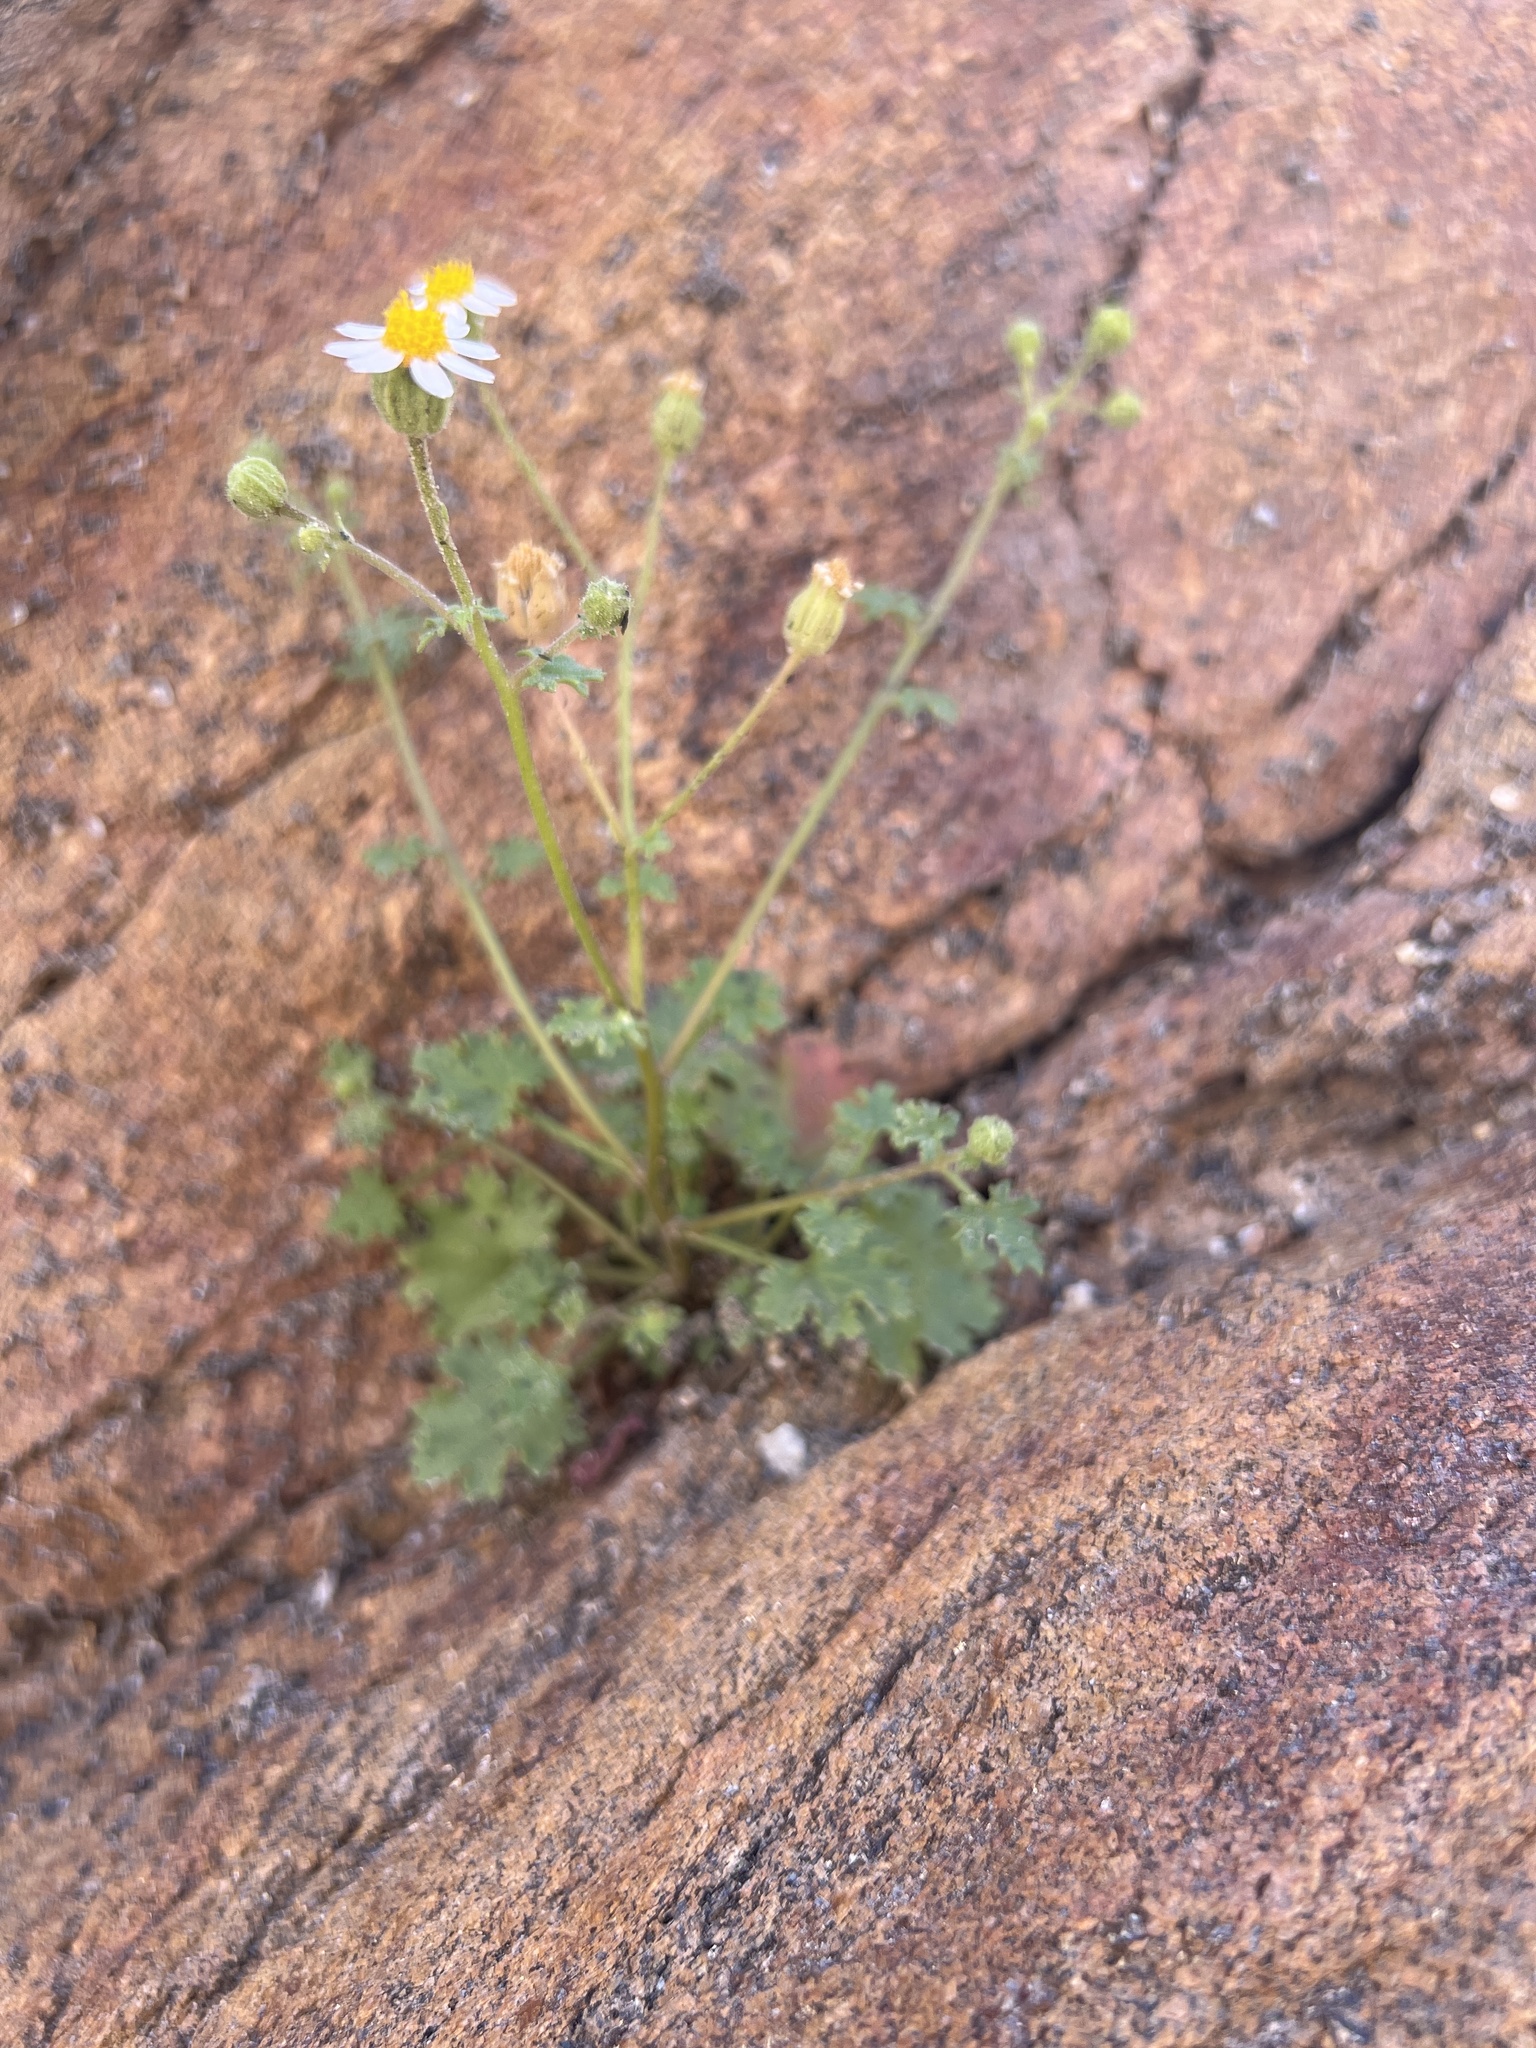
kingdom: Plantae
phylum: Tracheophyta
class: Magnoliopsida
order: Asterales
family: Asteraceae
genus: Laphamia
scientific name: Laphamia emoryi
